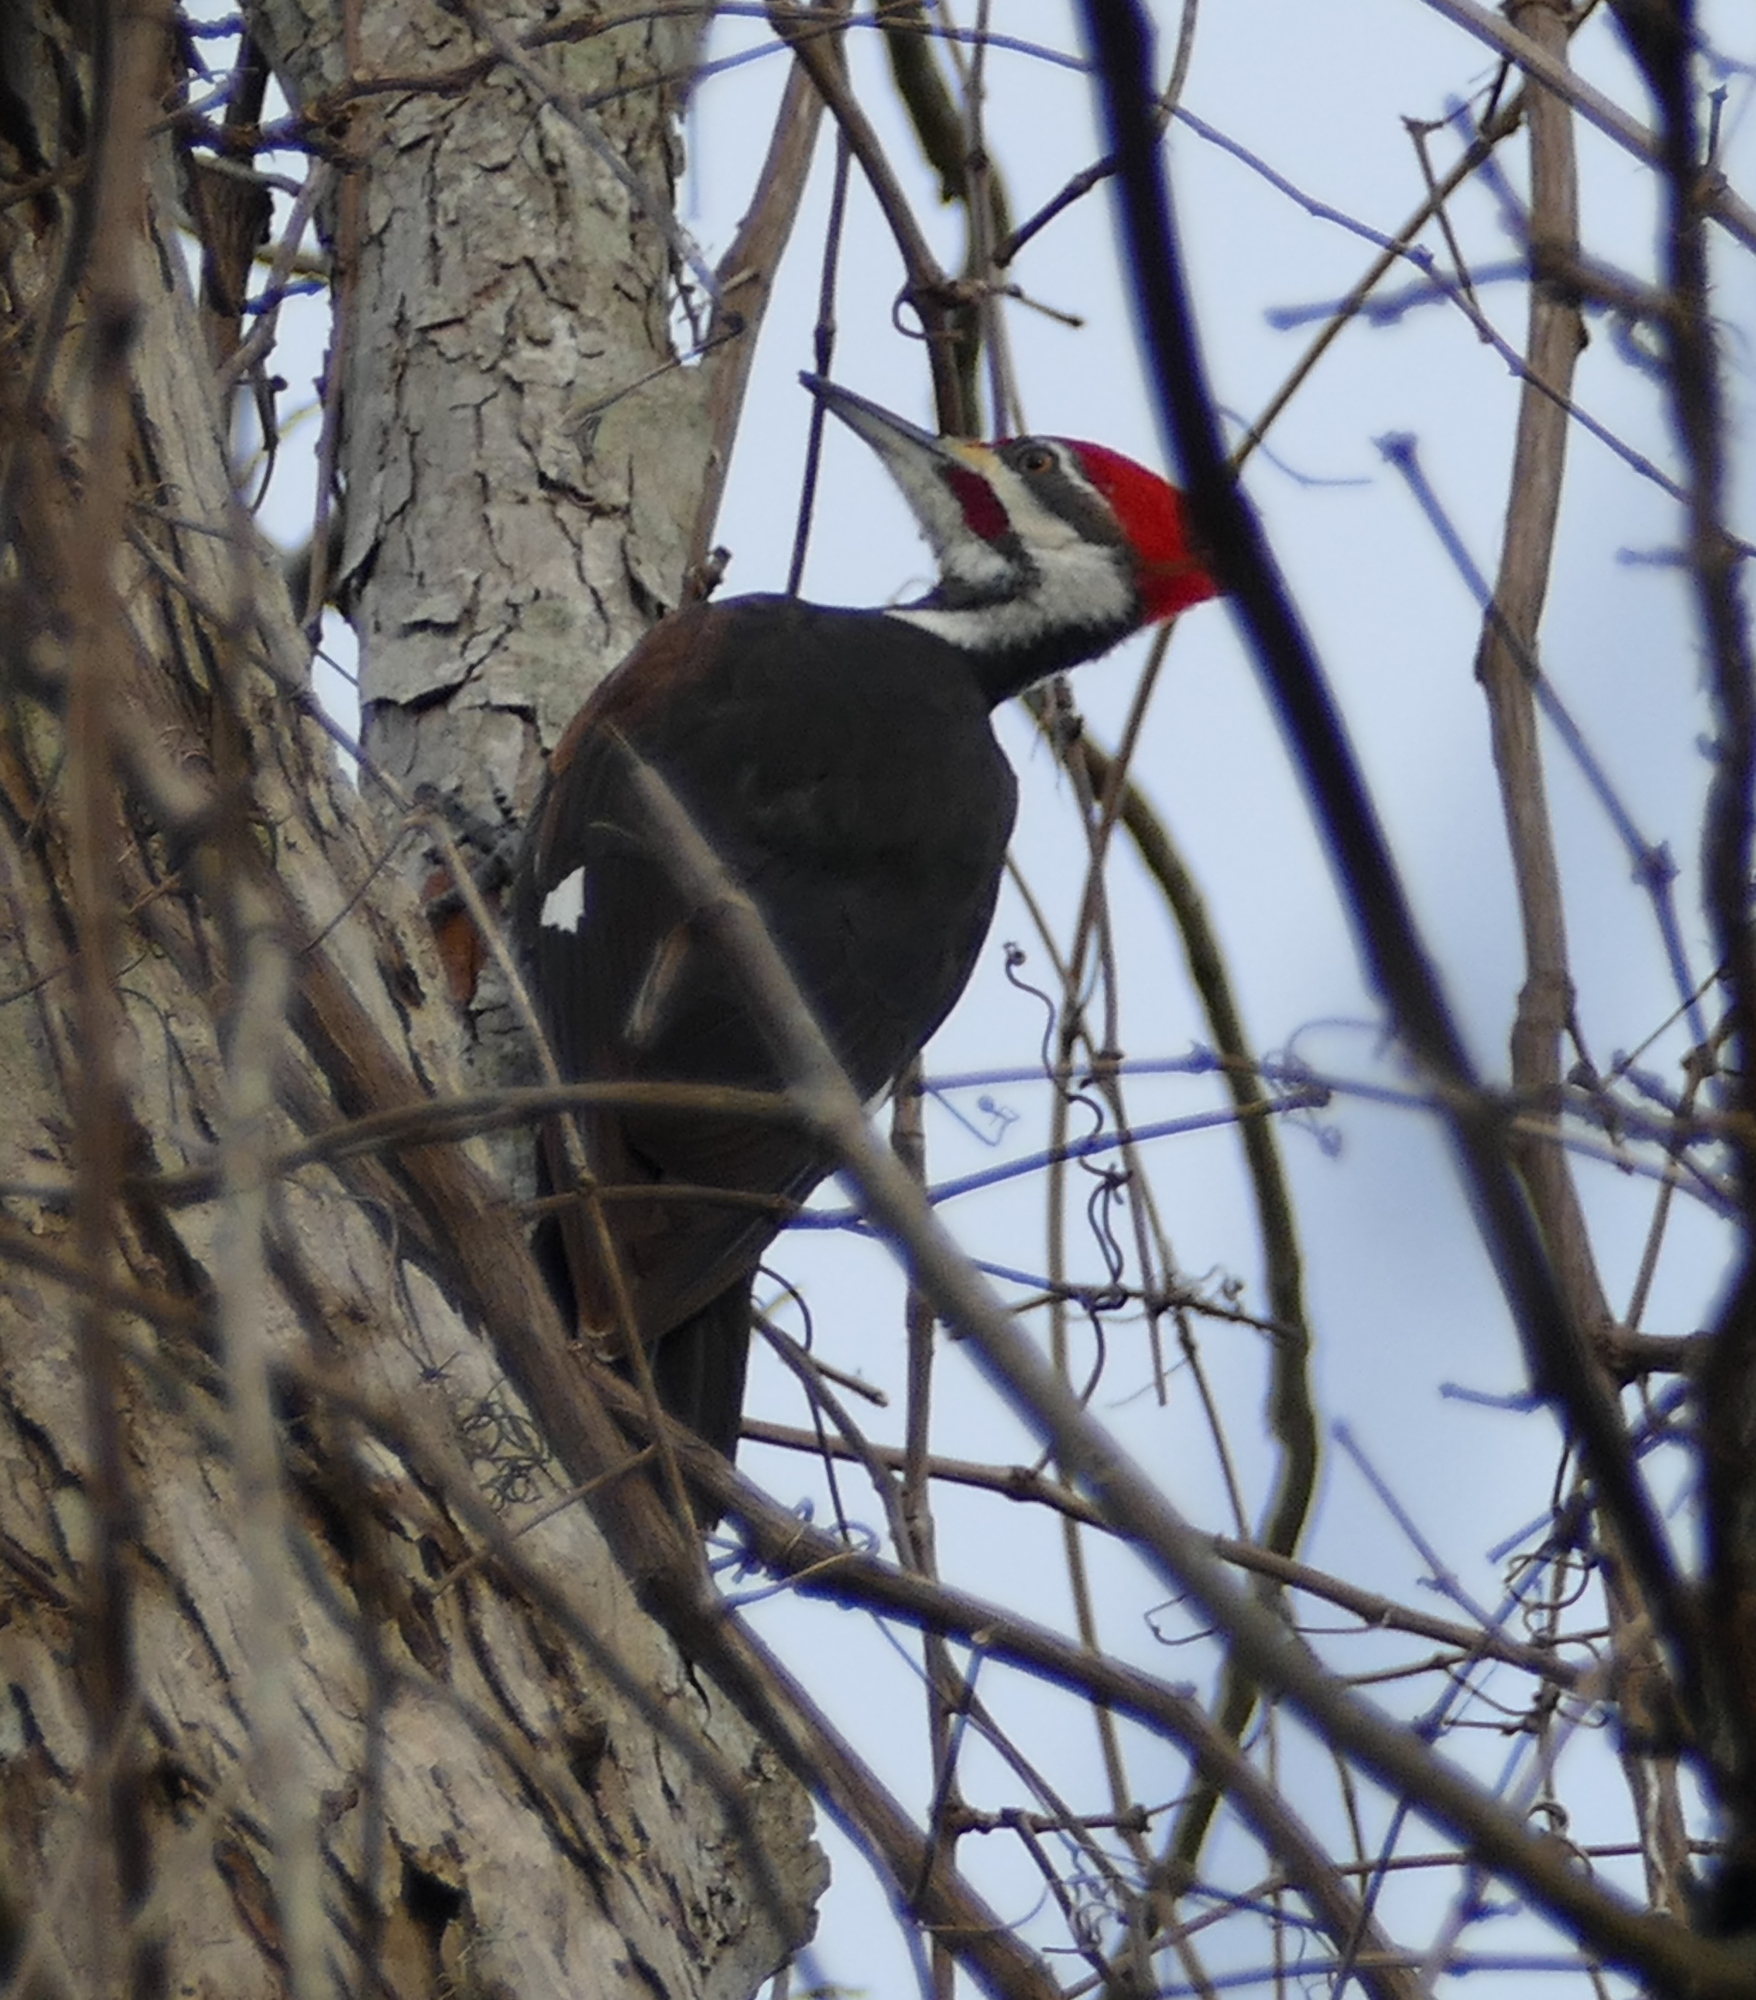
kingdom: Animalia
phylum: Chordata
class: Aves
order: Piciformes
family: Picidae
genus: Dryocopus
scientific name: Dryocopus pileatus
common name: Pileated woodpecker
